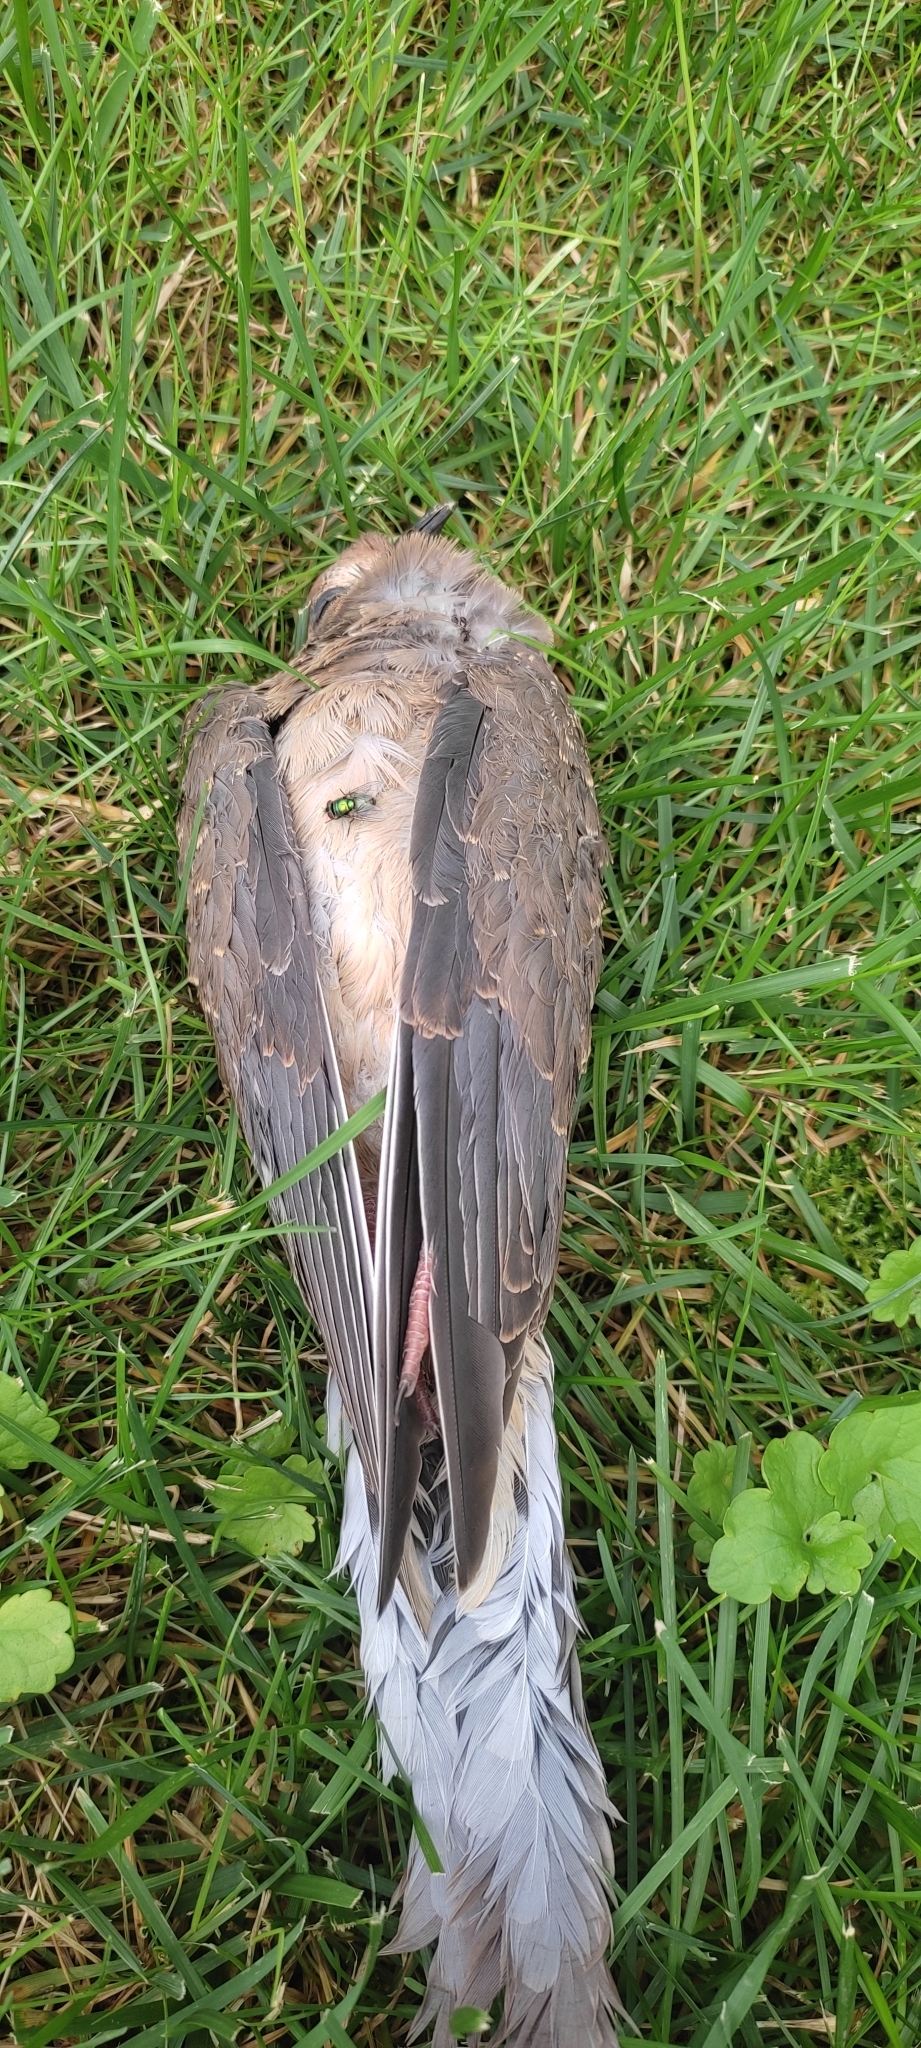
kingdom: Animalia
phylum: Chordata
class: Aves
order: Columbiformes
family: Columbidae
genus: Zenaida
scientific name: Zenaida macroura
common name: Mourning dove
